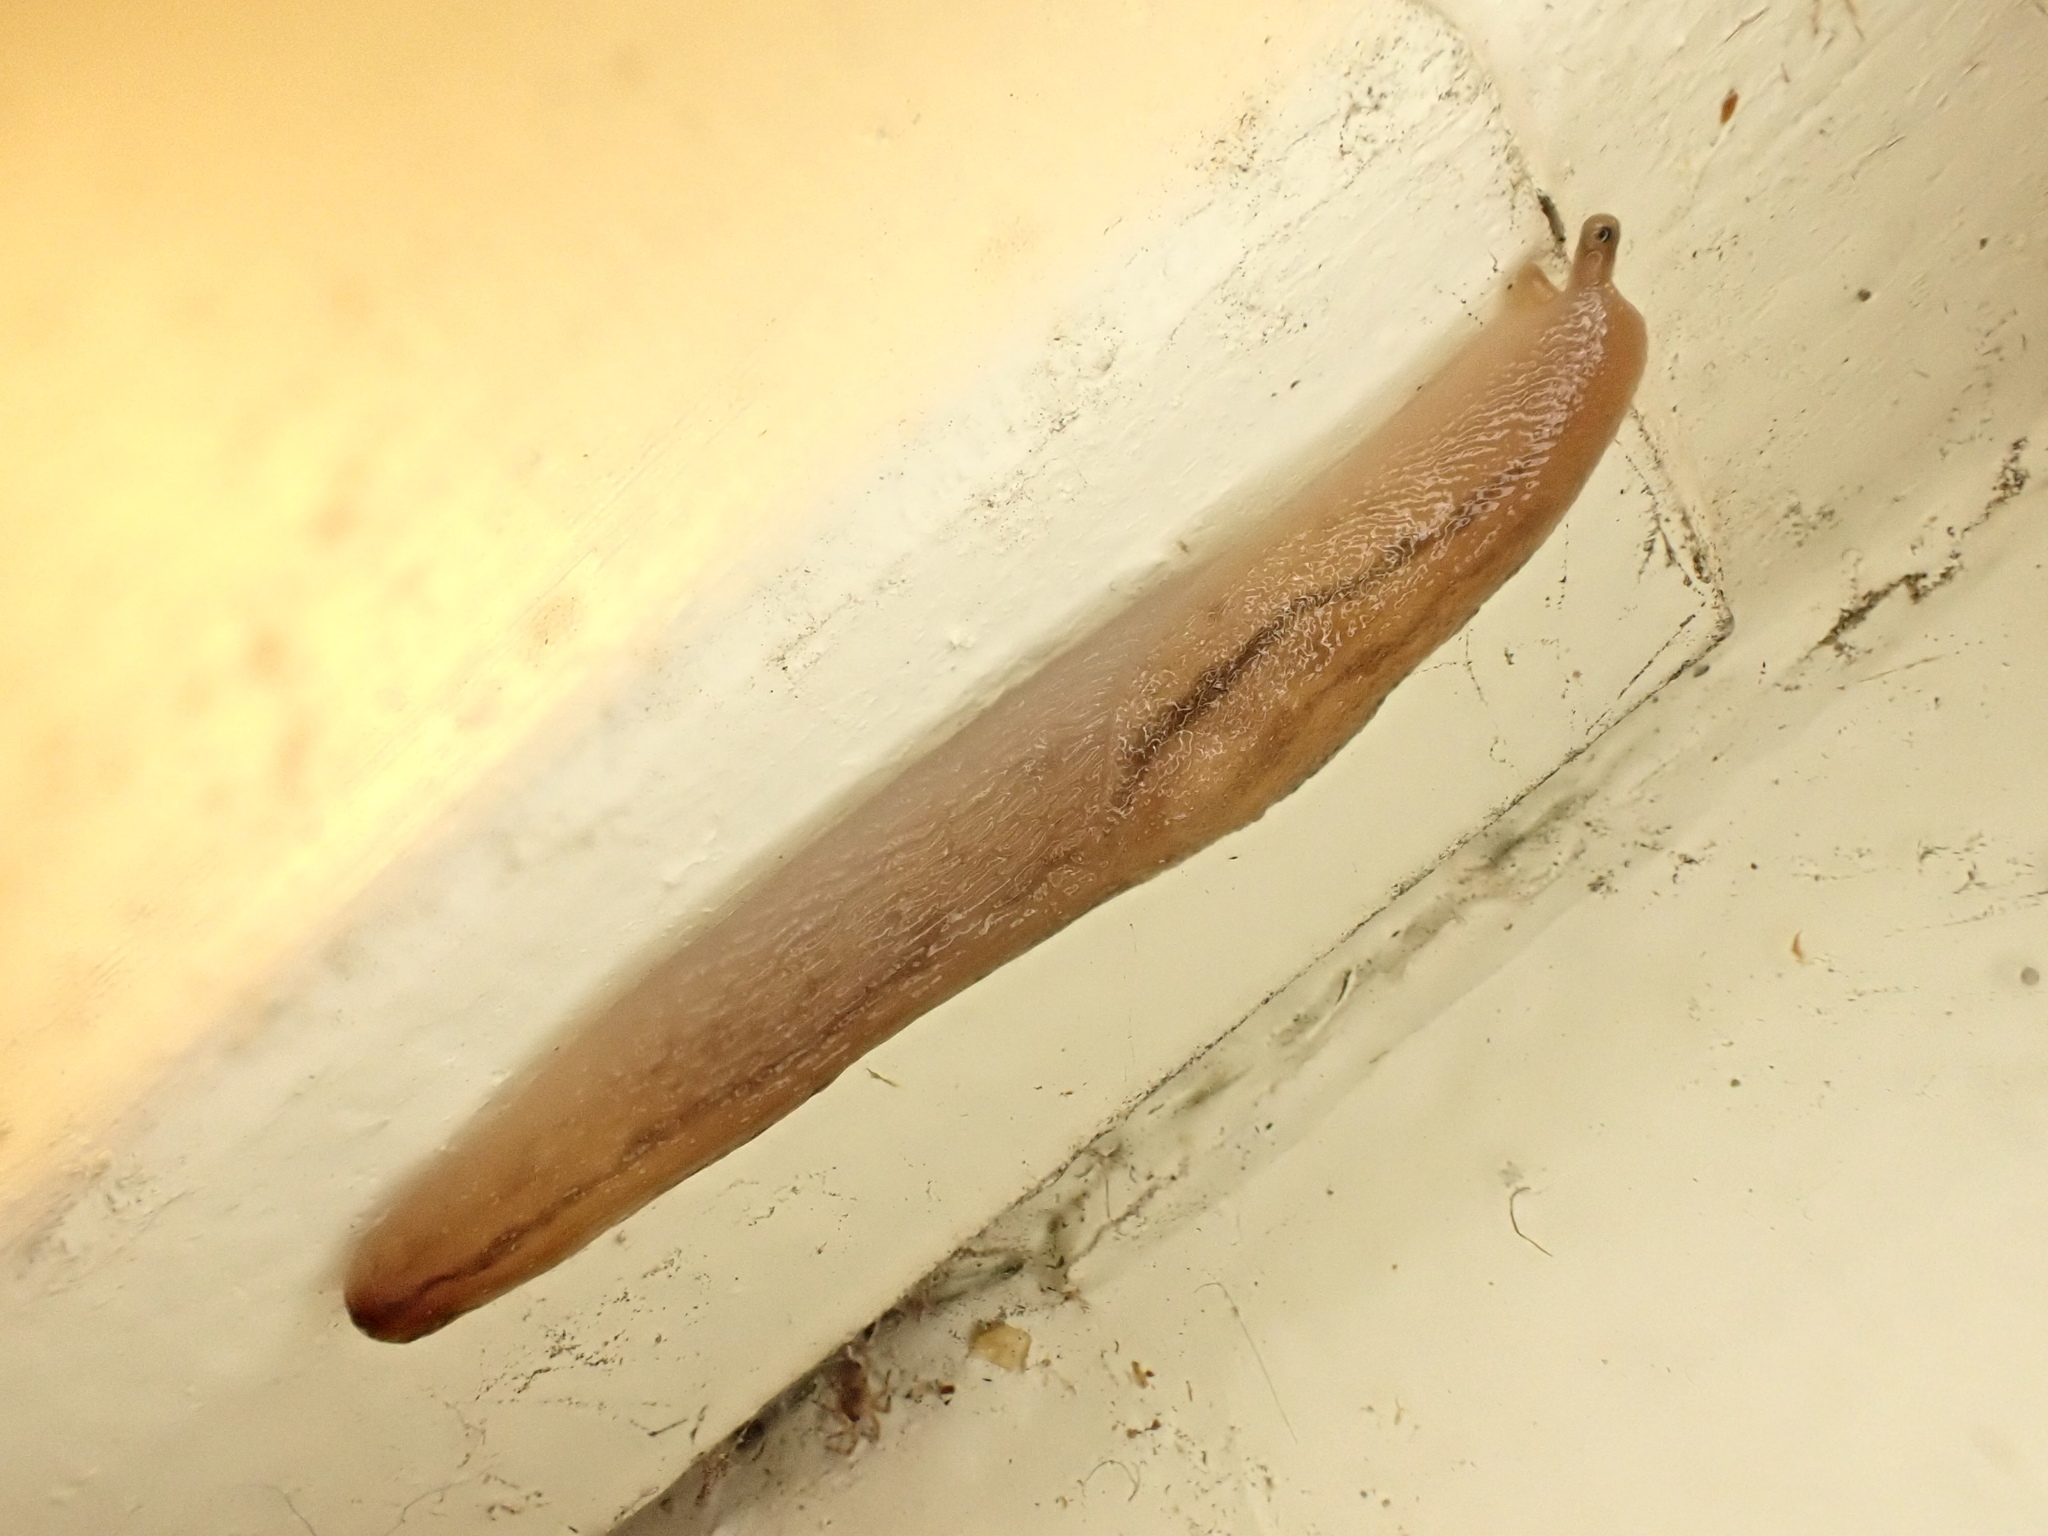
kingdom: Animalia
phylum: Mollusca
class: Gastropoda
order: Stylommatophora
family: Limacidae
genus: Ambigolimax
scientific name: Ambigolimax
